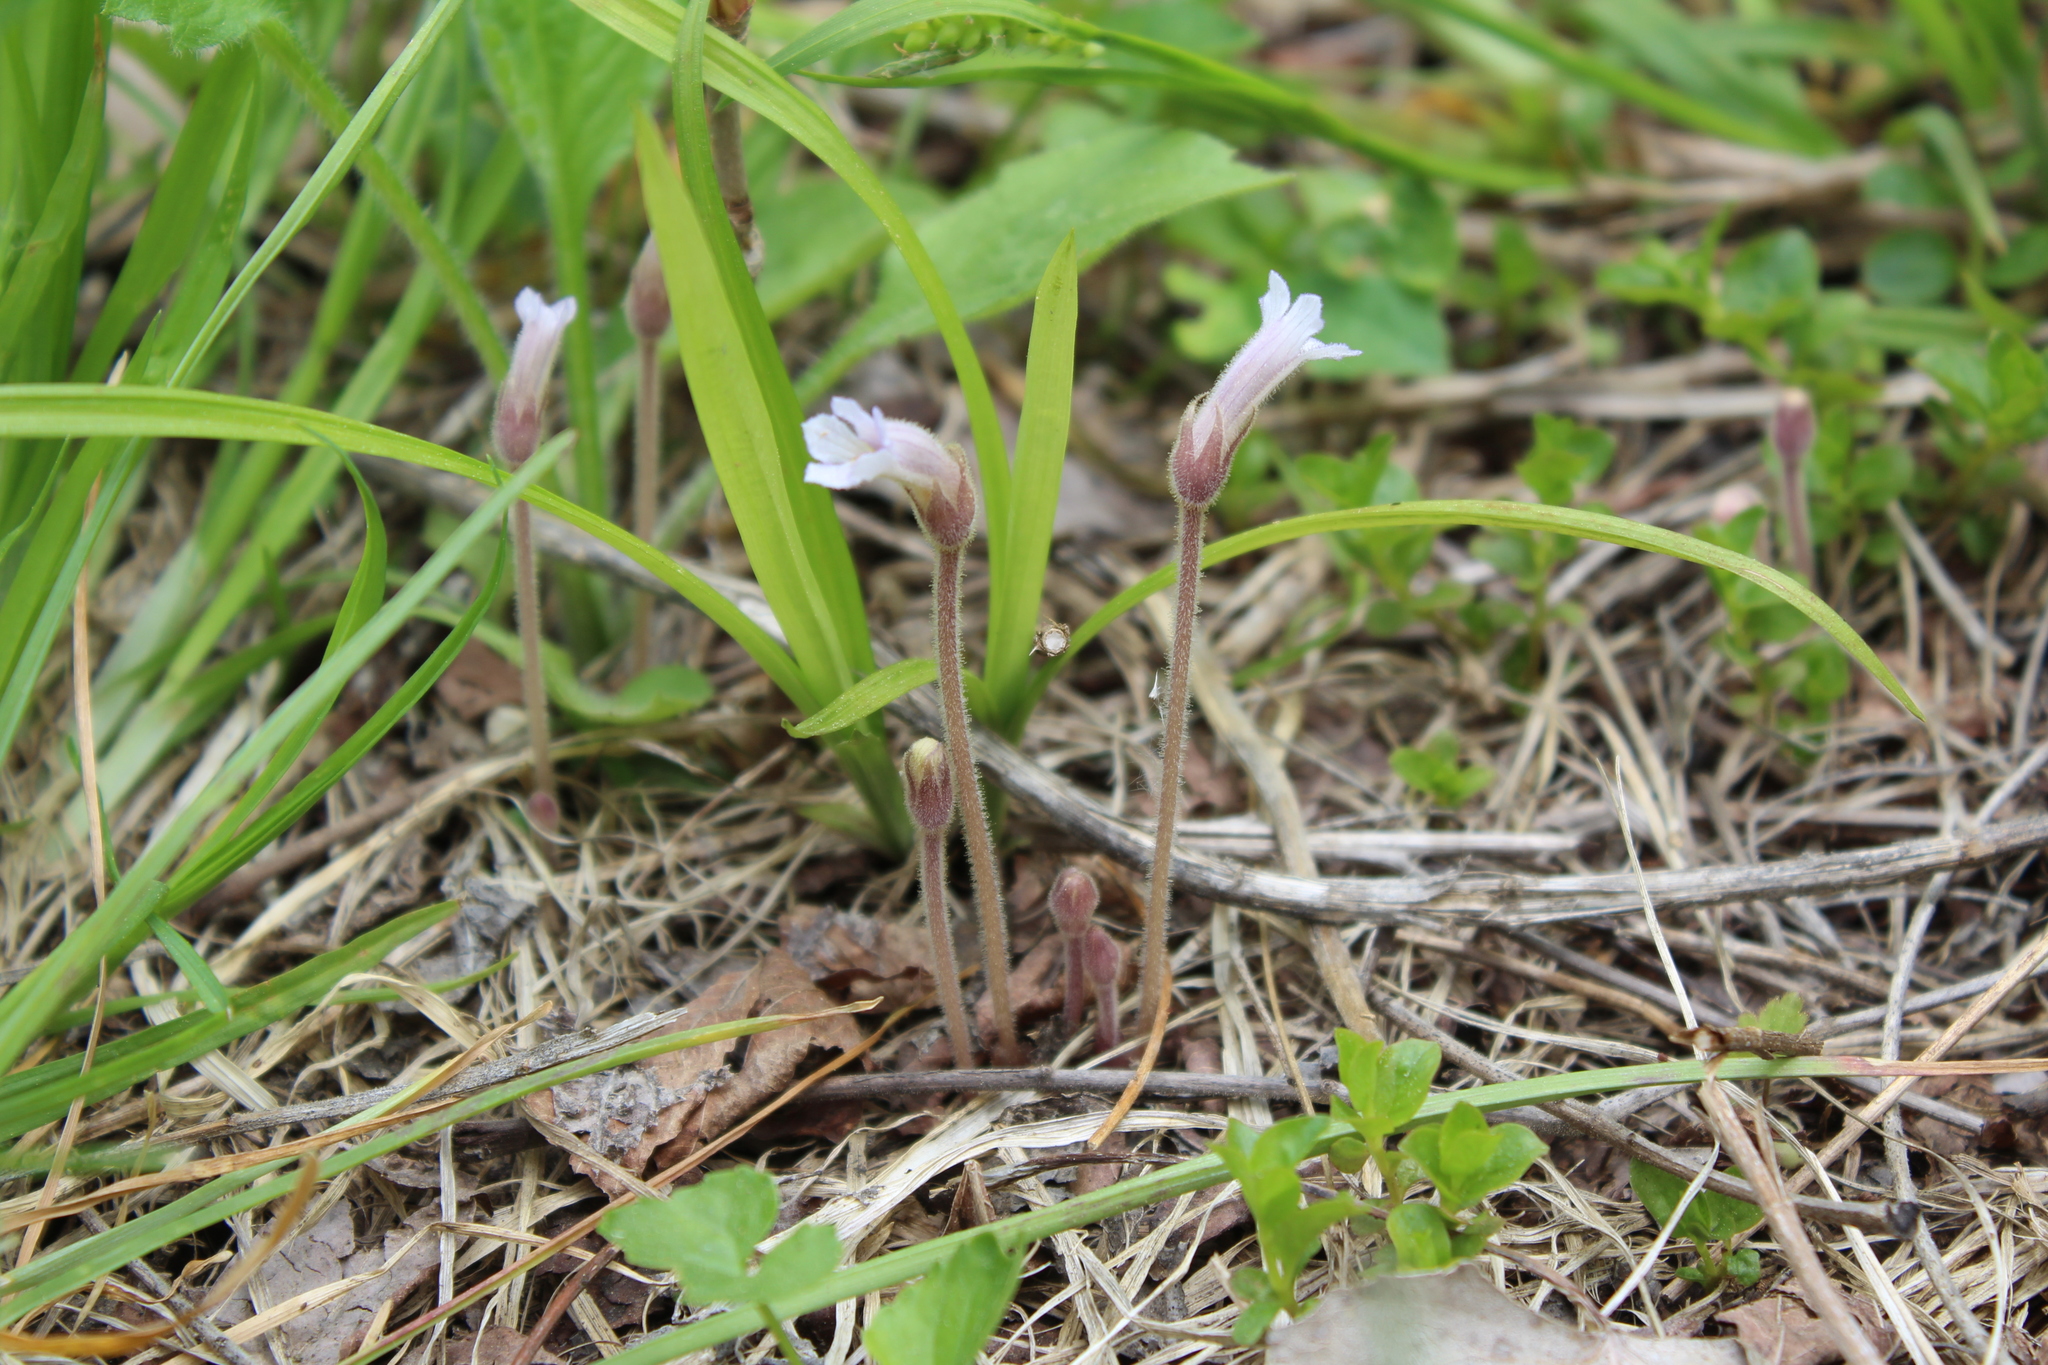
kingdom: Plantae
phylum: Tracheophyta
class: Magnoliopsida
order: Lamiales
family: Orobanchaceae
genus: Aphyllon
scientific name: Aphyllon uniflorum
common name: One-flowered broomrape
